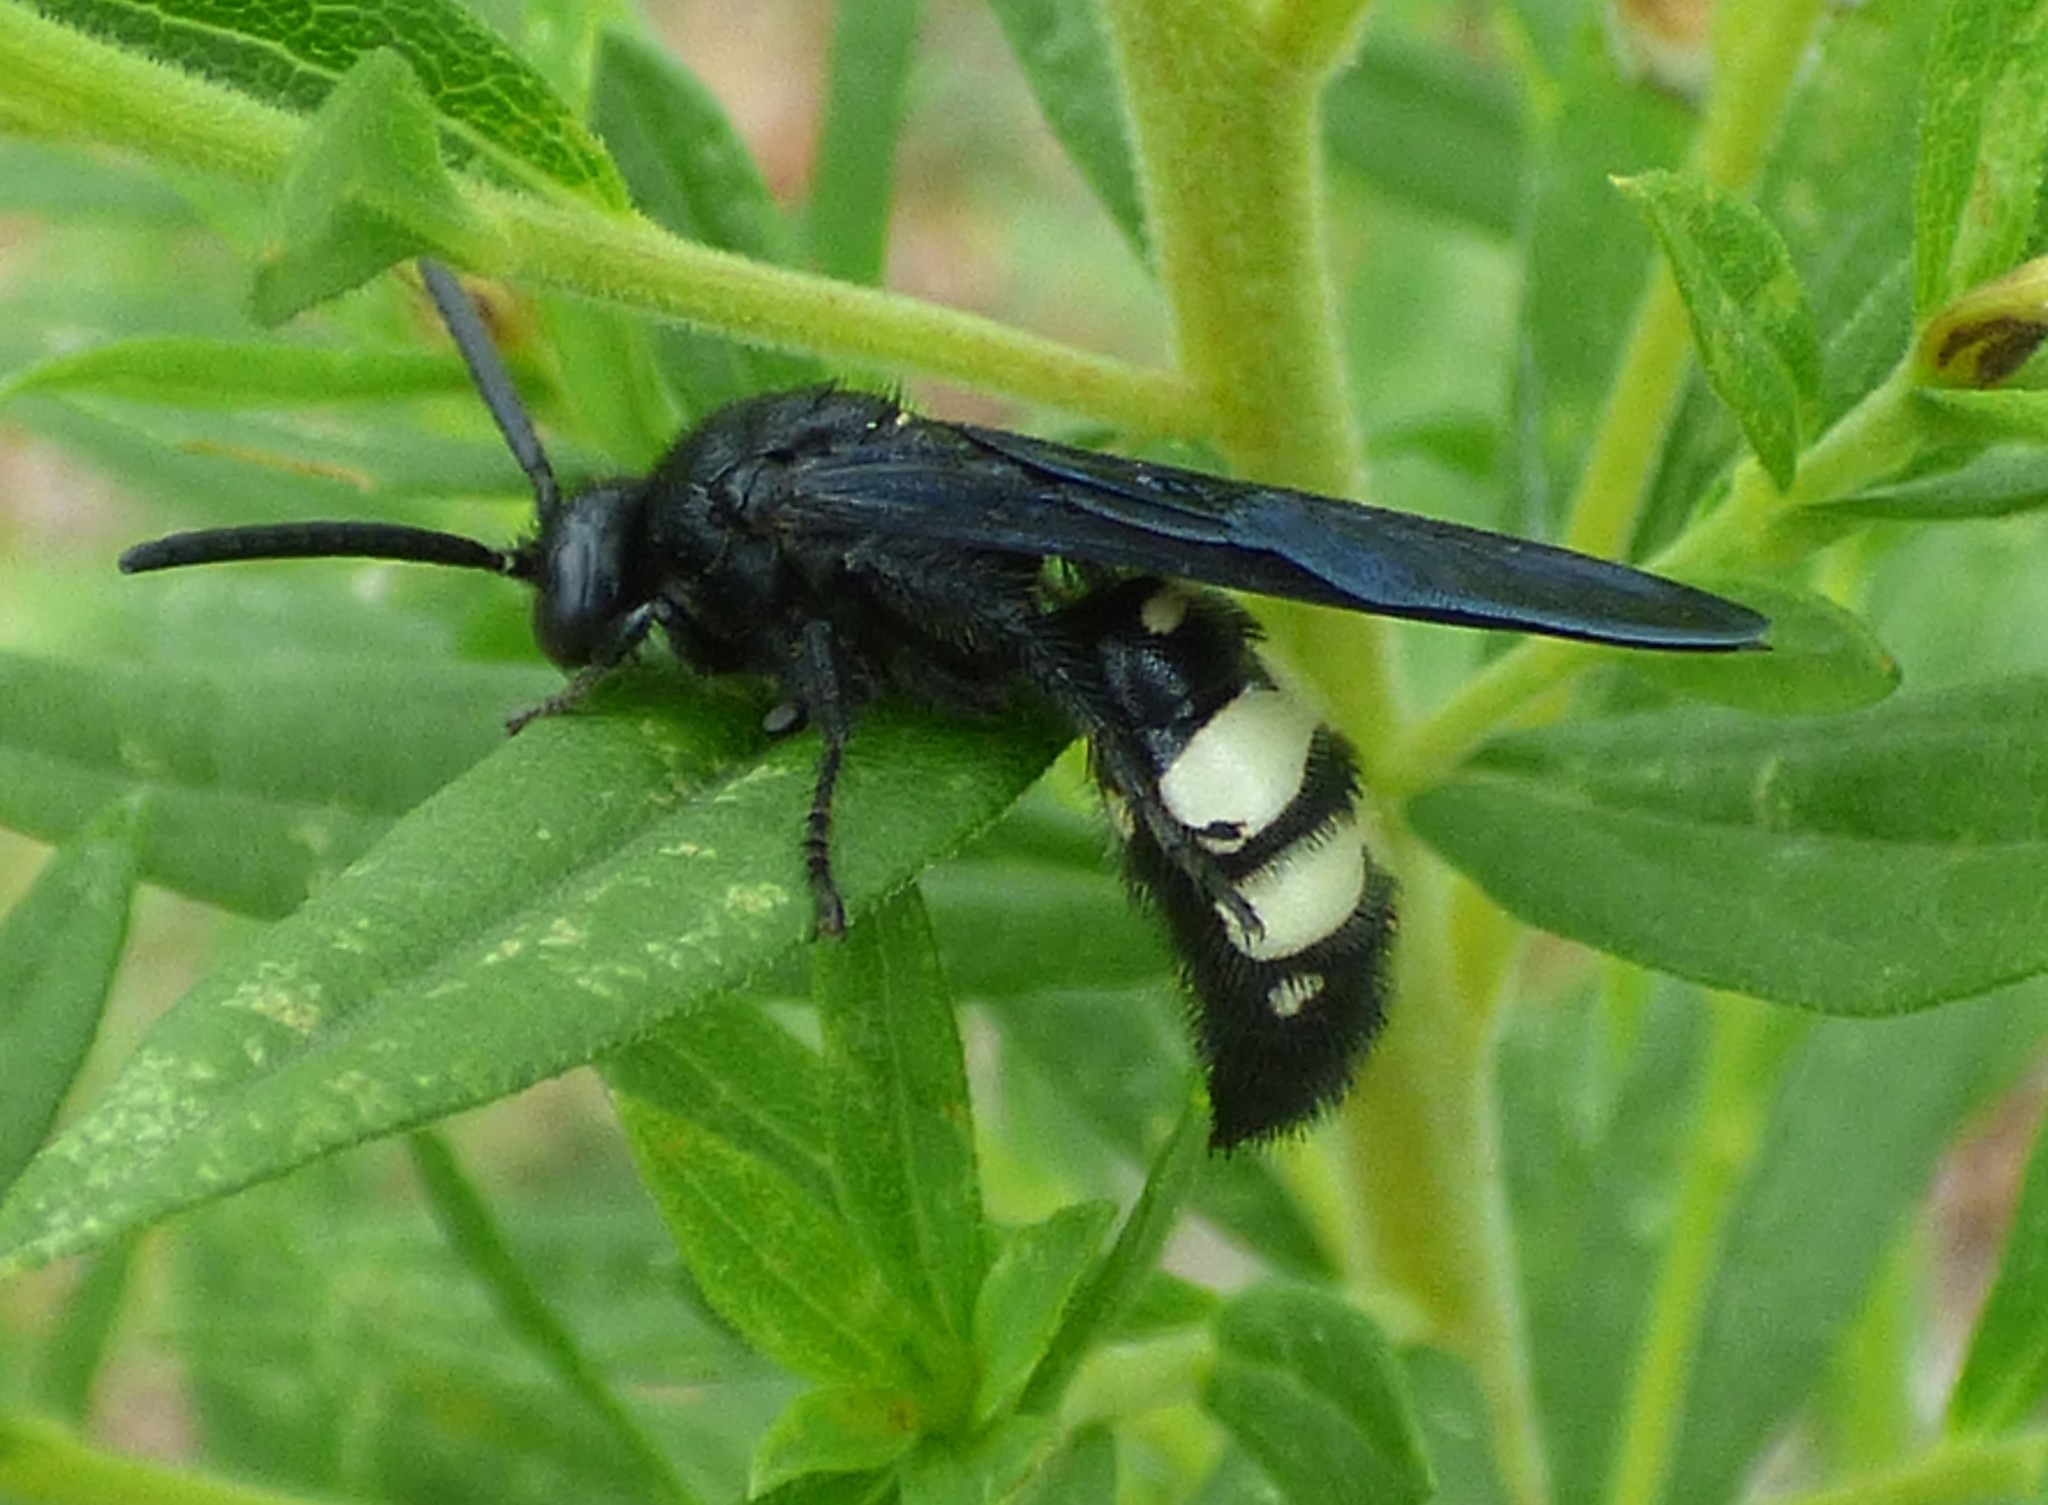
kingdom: Animalia
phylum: Arthropoda
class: Insecta
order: Hymenoptera
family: Scoliidae
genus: Scolia
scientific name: Scolia bicincta
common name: Double-banded scoliid wasp
